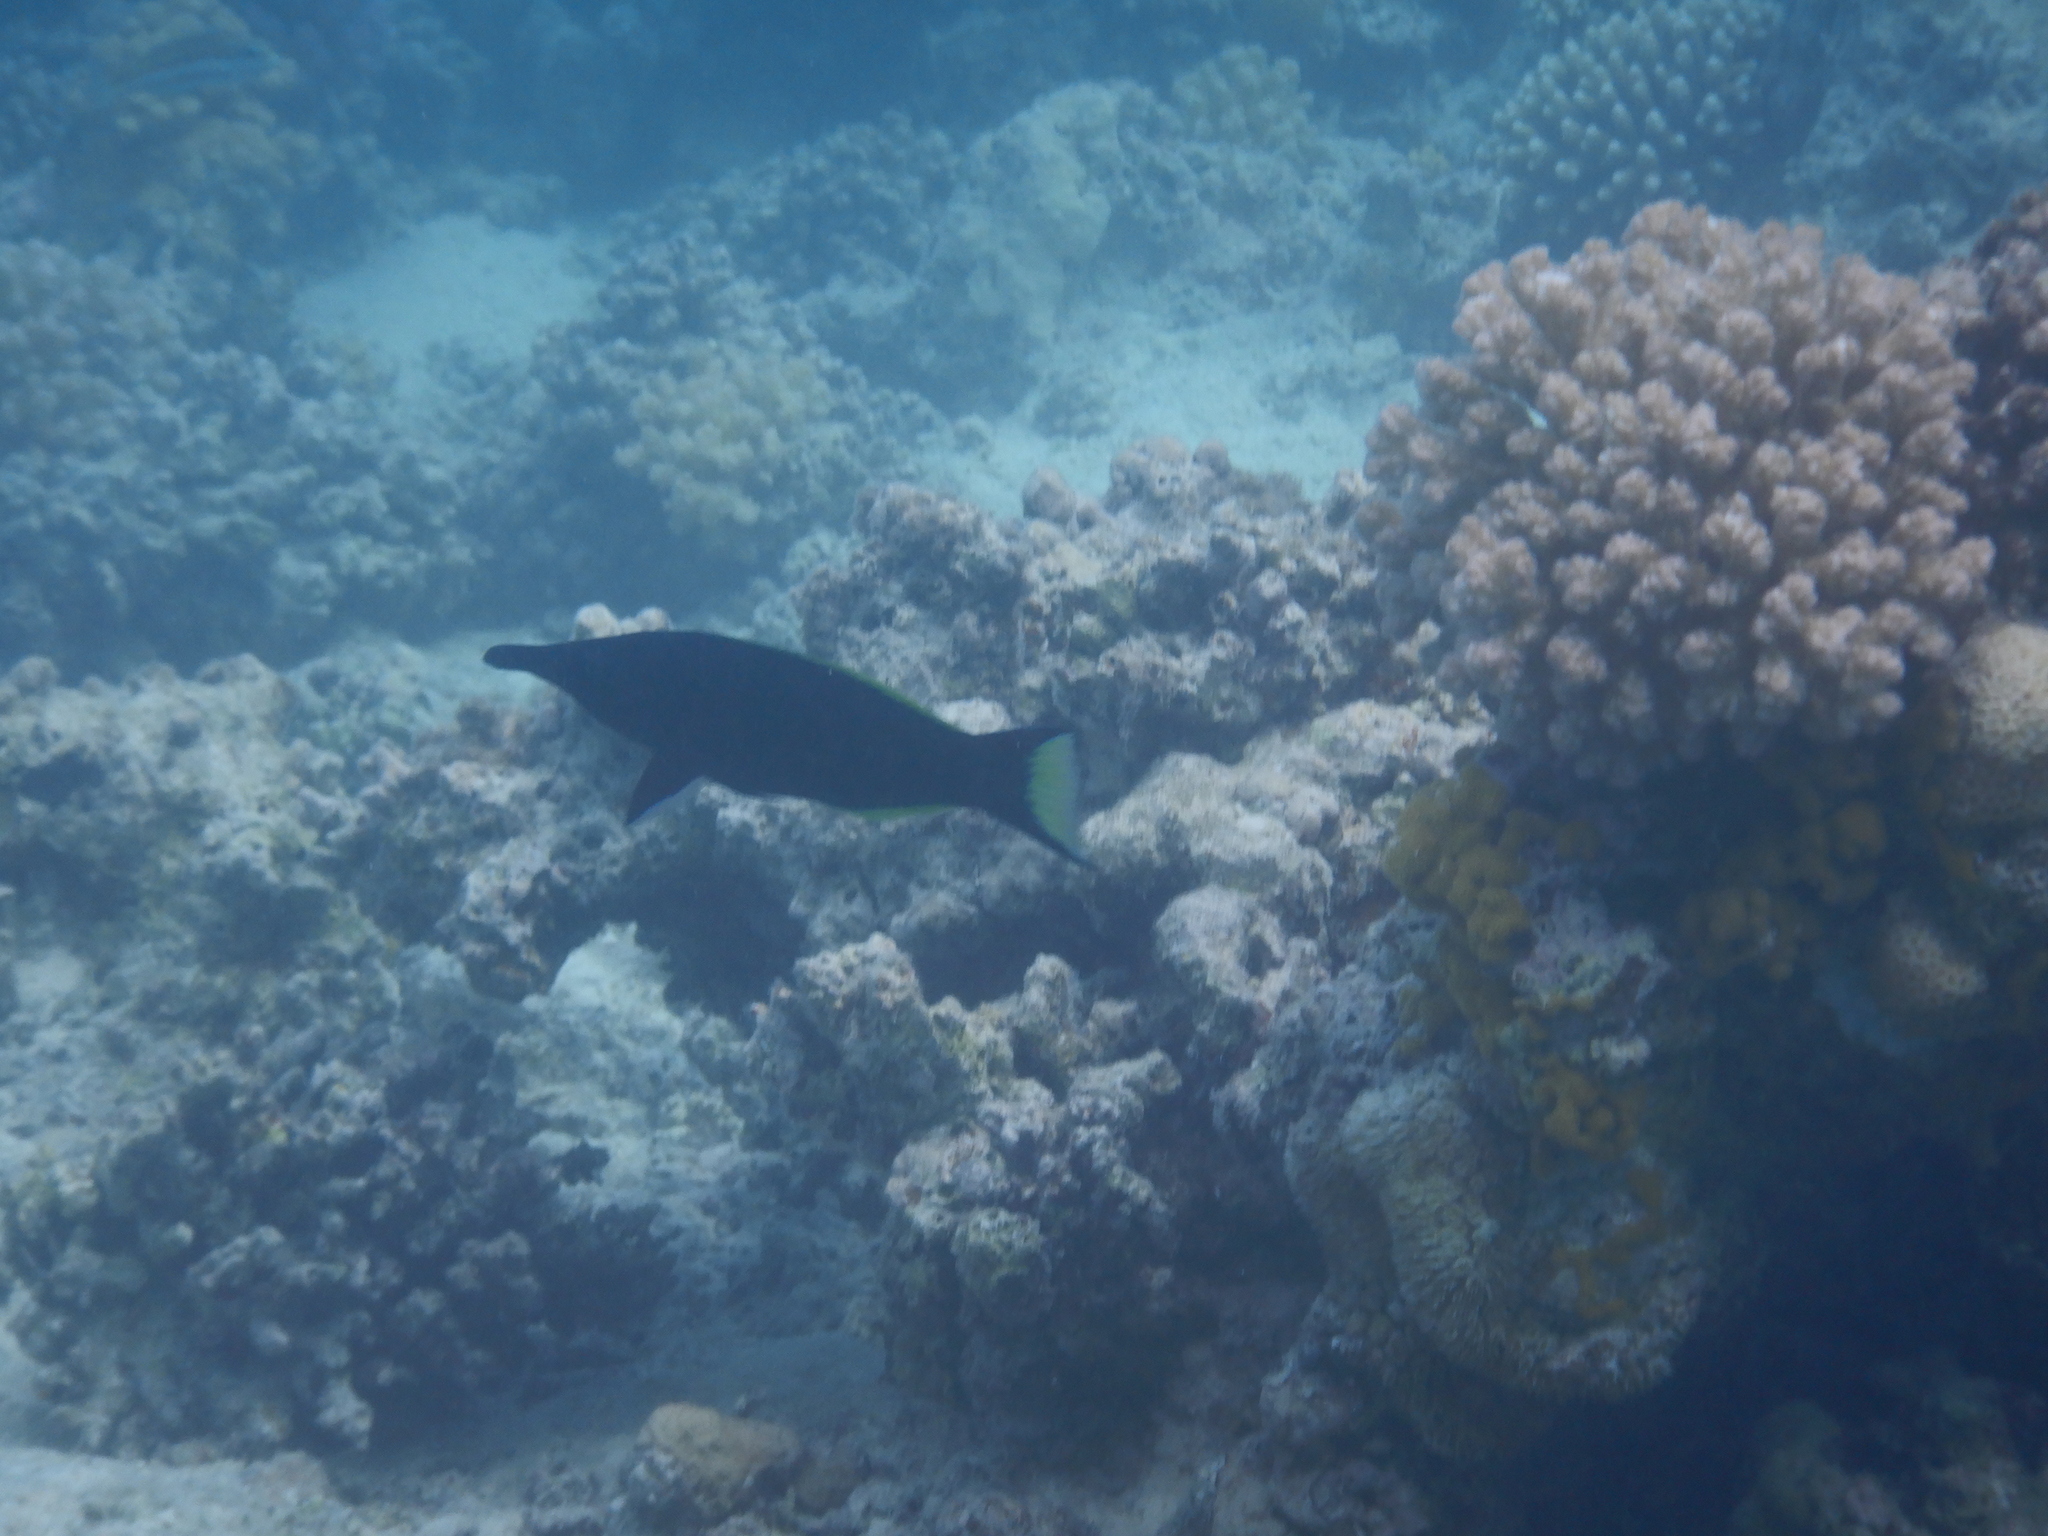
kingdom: Animalia
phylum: Chordata
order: Perciformes
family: Labridae
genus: Gomphosus
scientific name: Gomphosus klunzingeri
